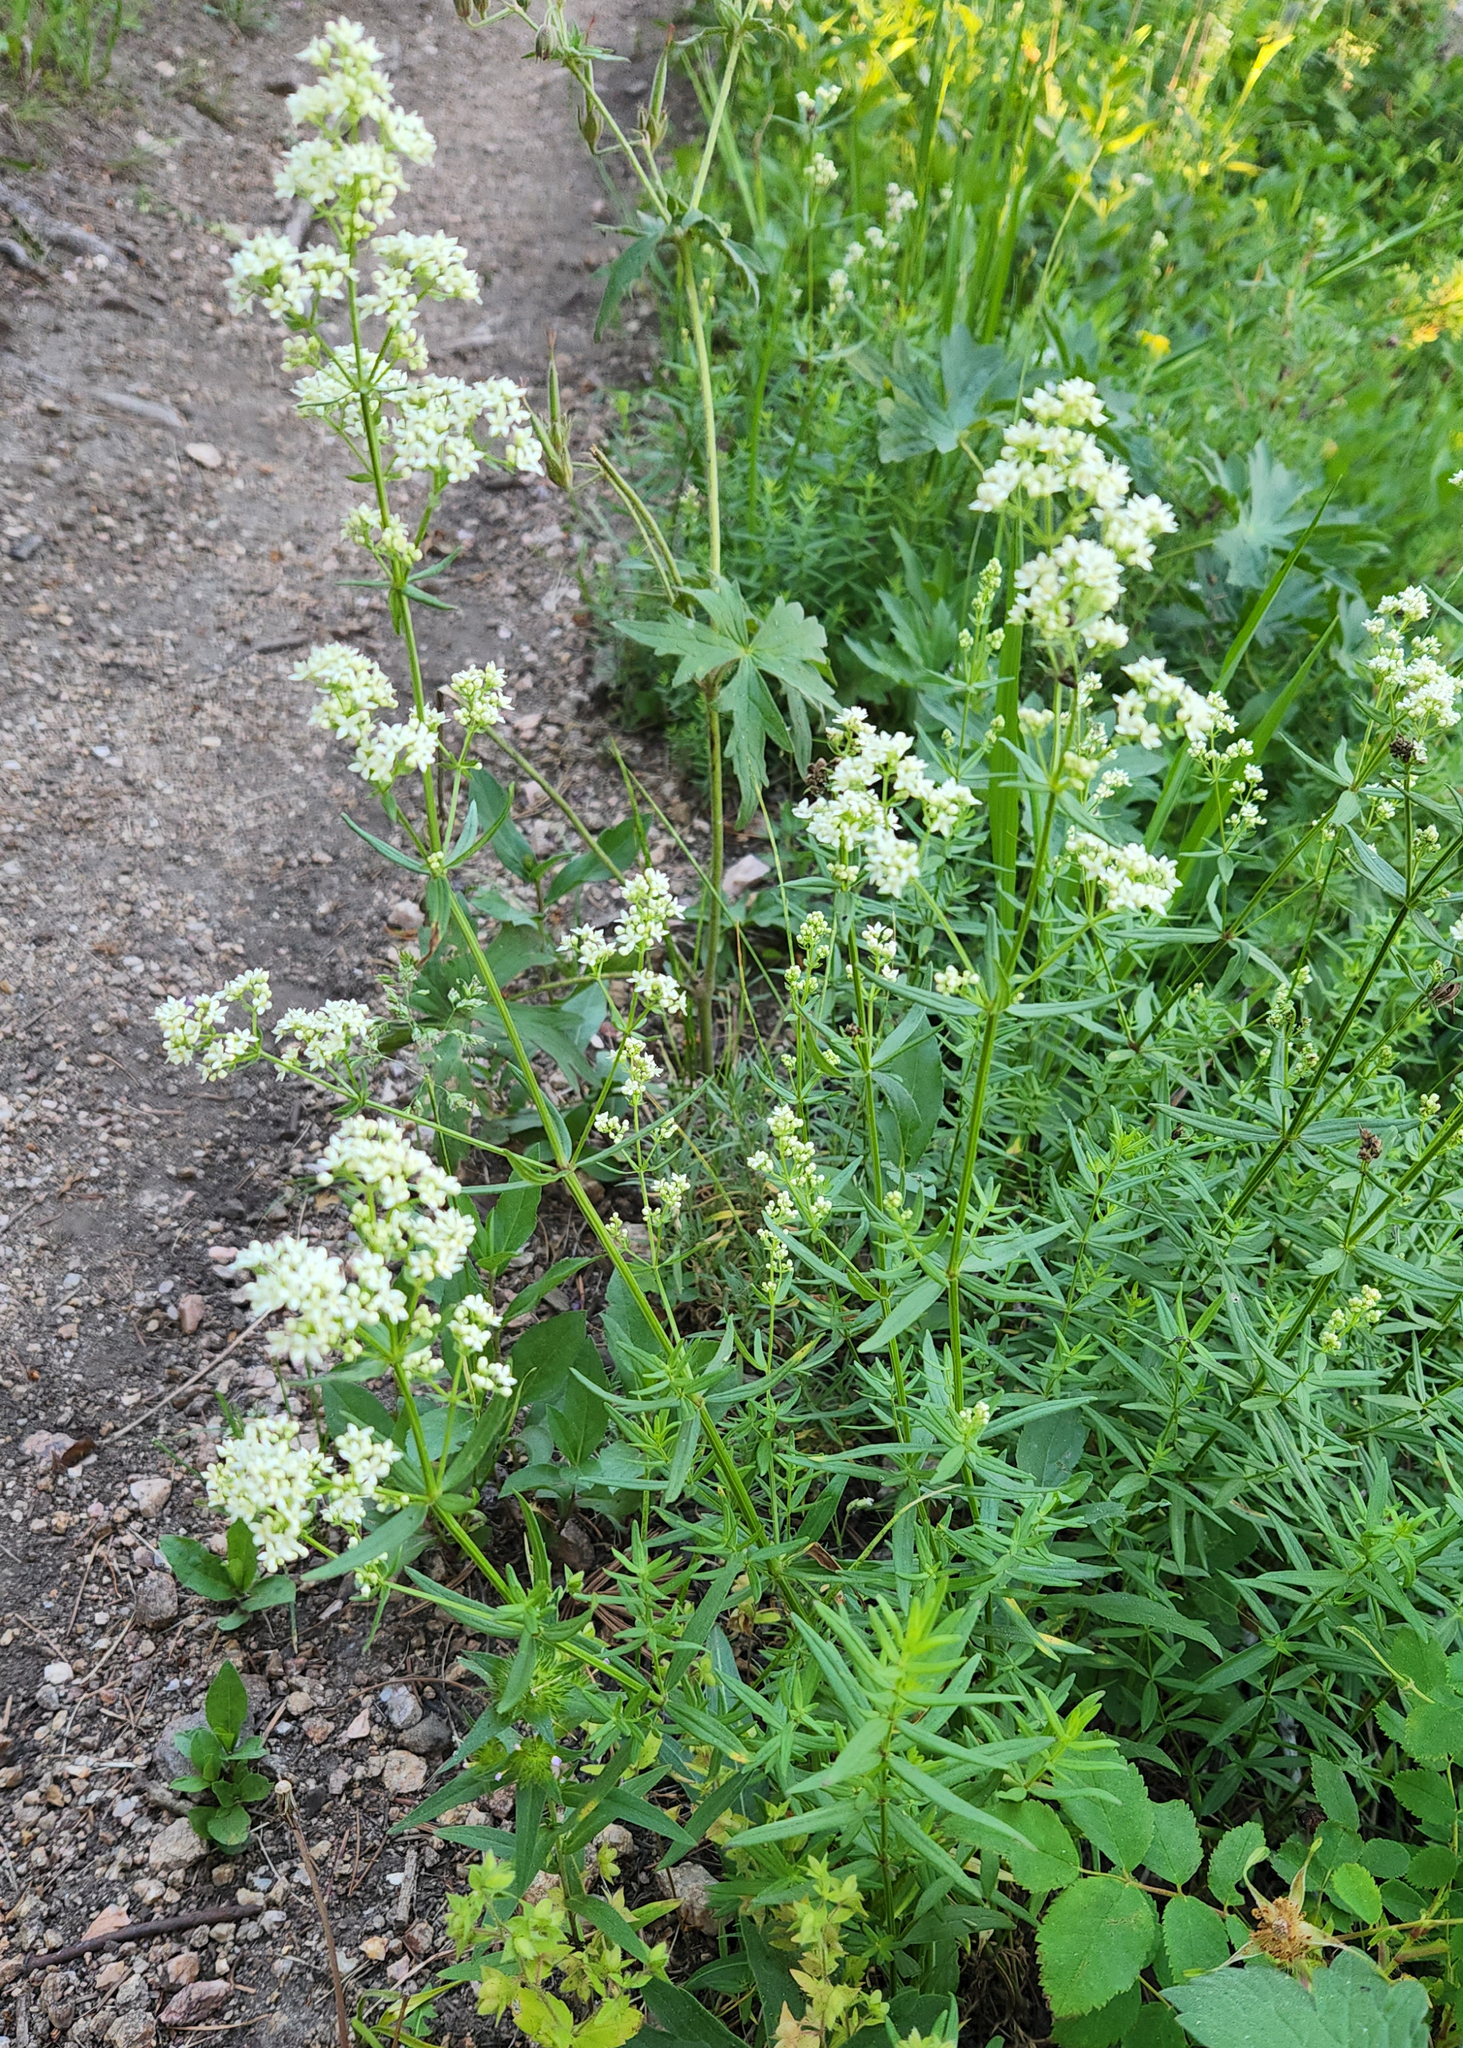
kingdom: Plantae
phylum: Tracheophyta
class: Magnoliopsida
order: Gentianales
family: Rubiaceae
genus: Galium
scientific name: Galium boreale
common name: Northern bedstraw
